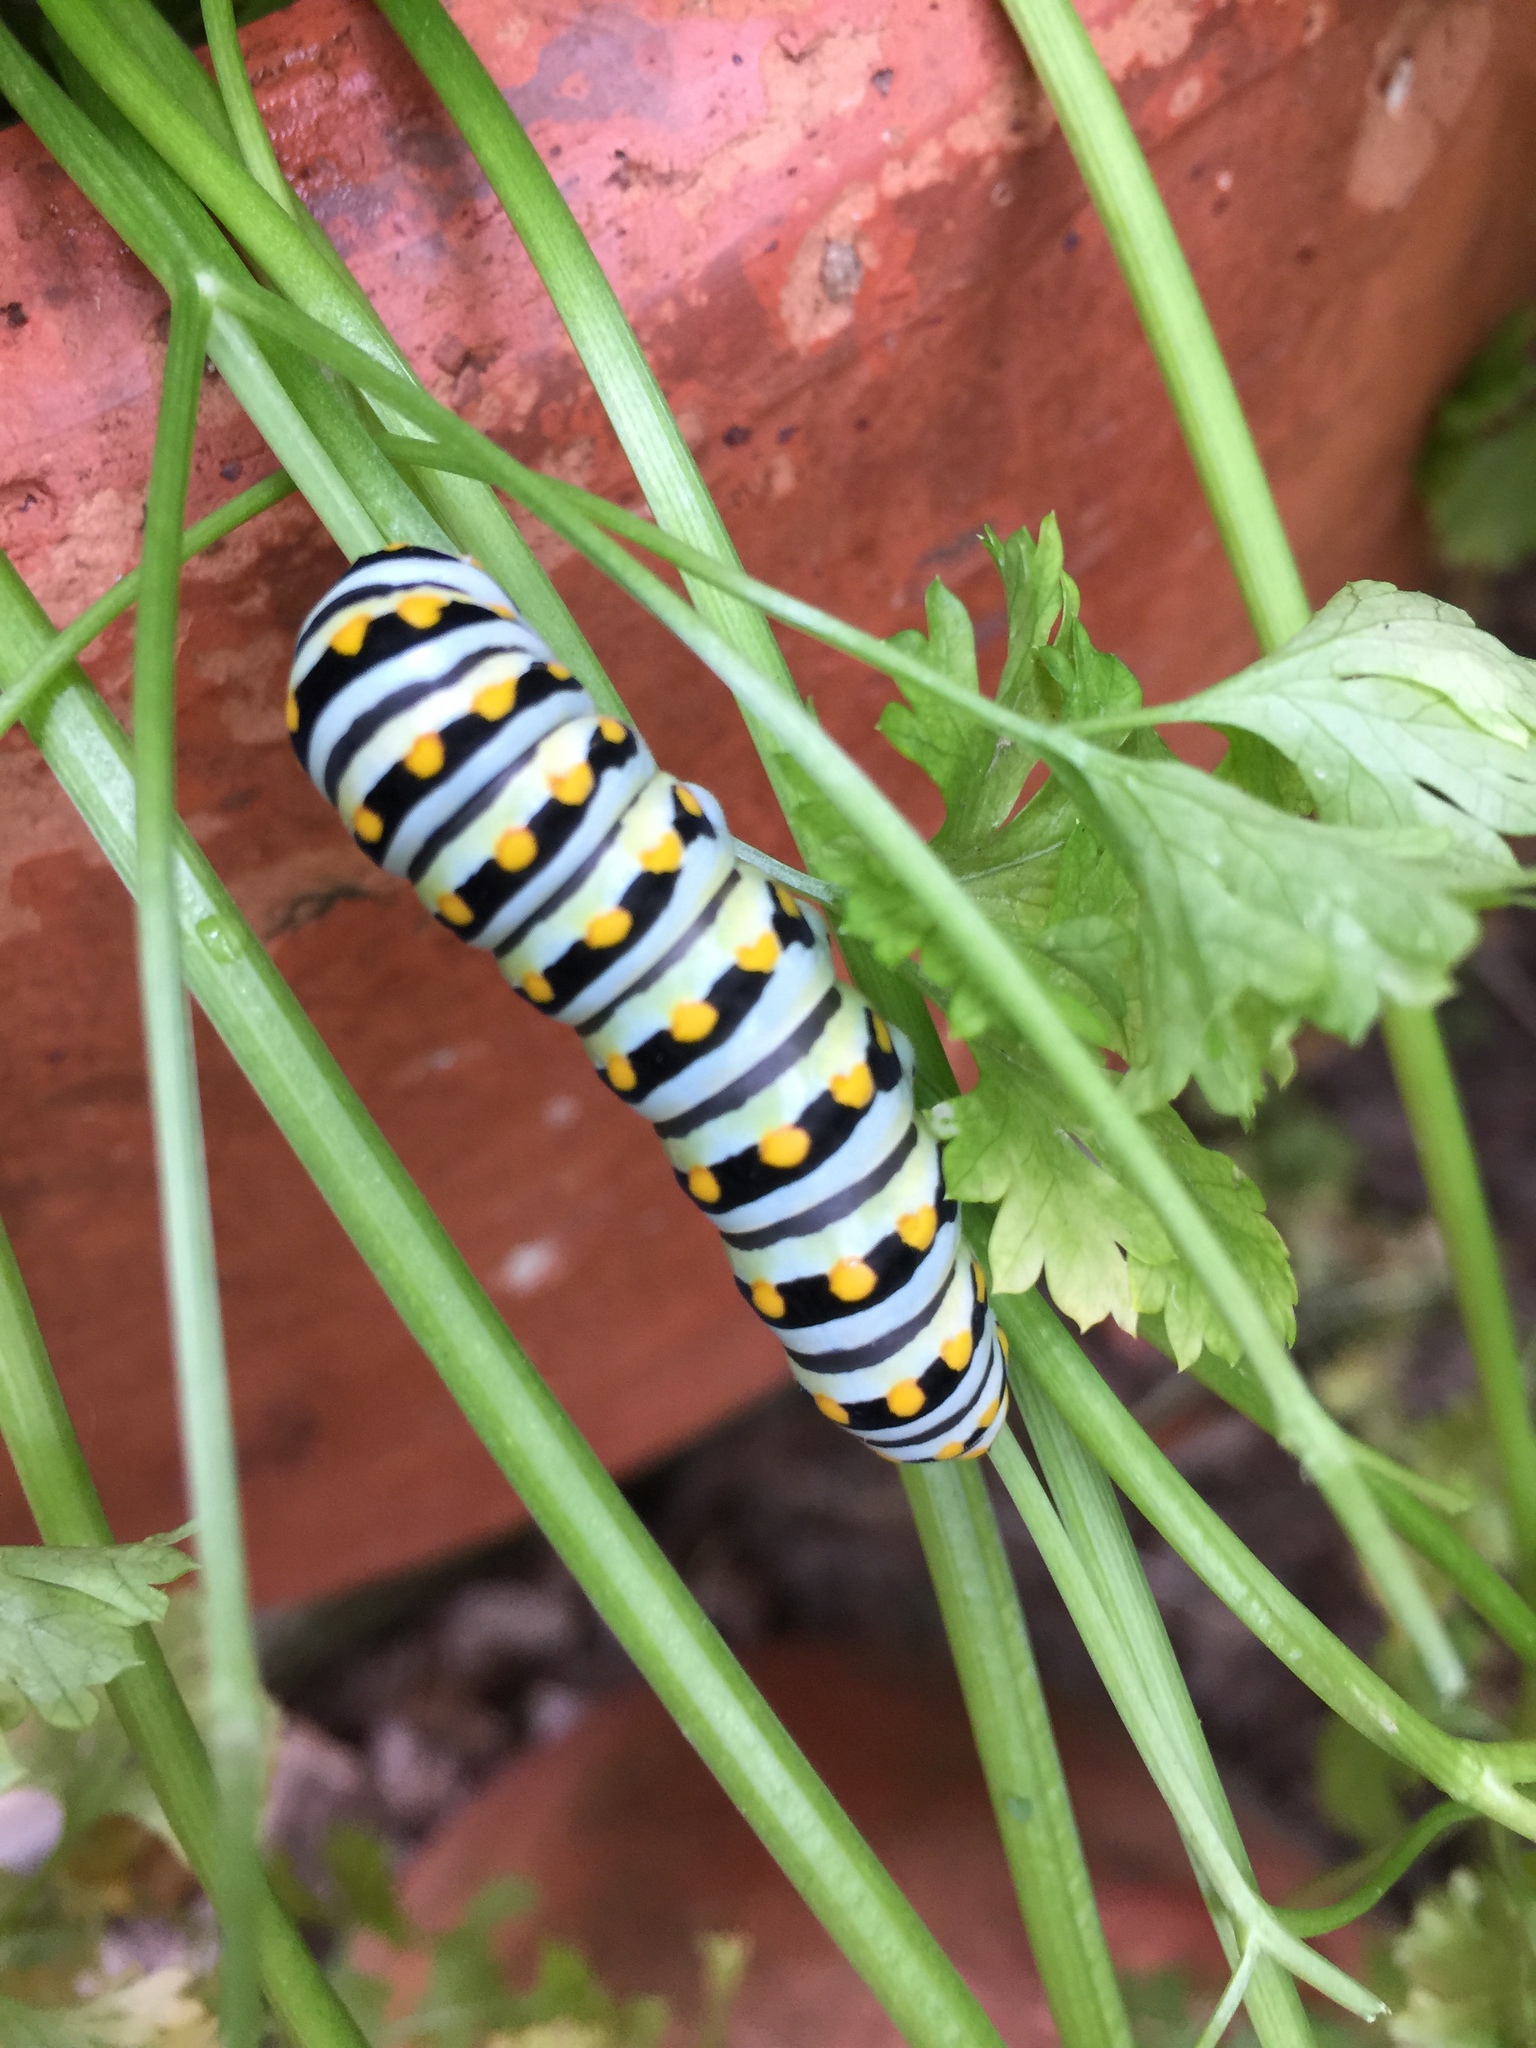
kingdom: Animalia
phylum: Arthropoda
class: Insecta
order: Lepidoptera
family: Papilionidae
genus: Papilio
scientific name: Papilio polyxenes
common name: Black swallowtail
